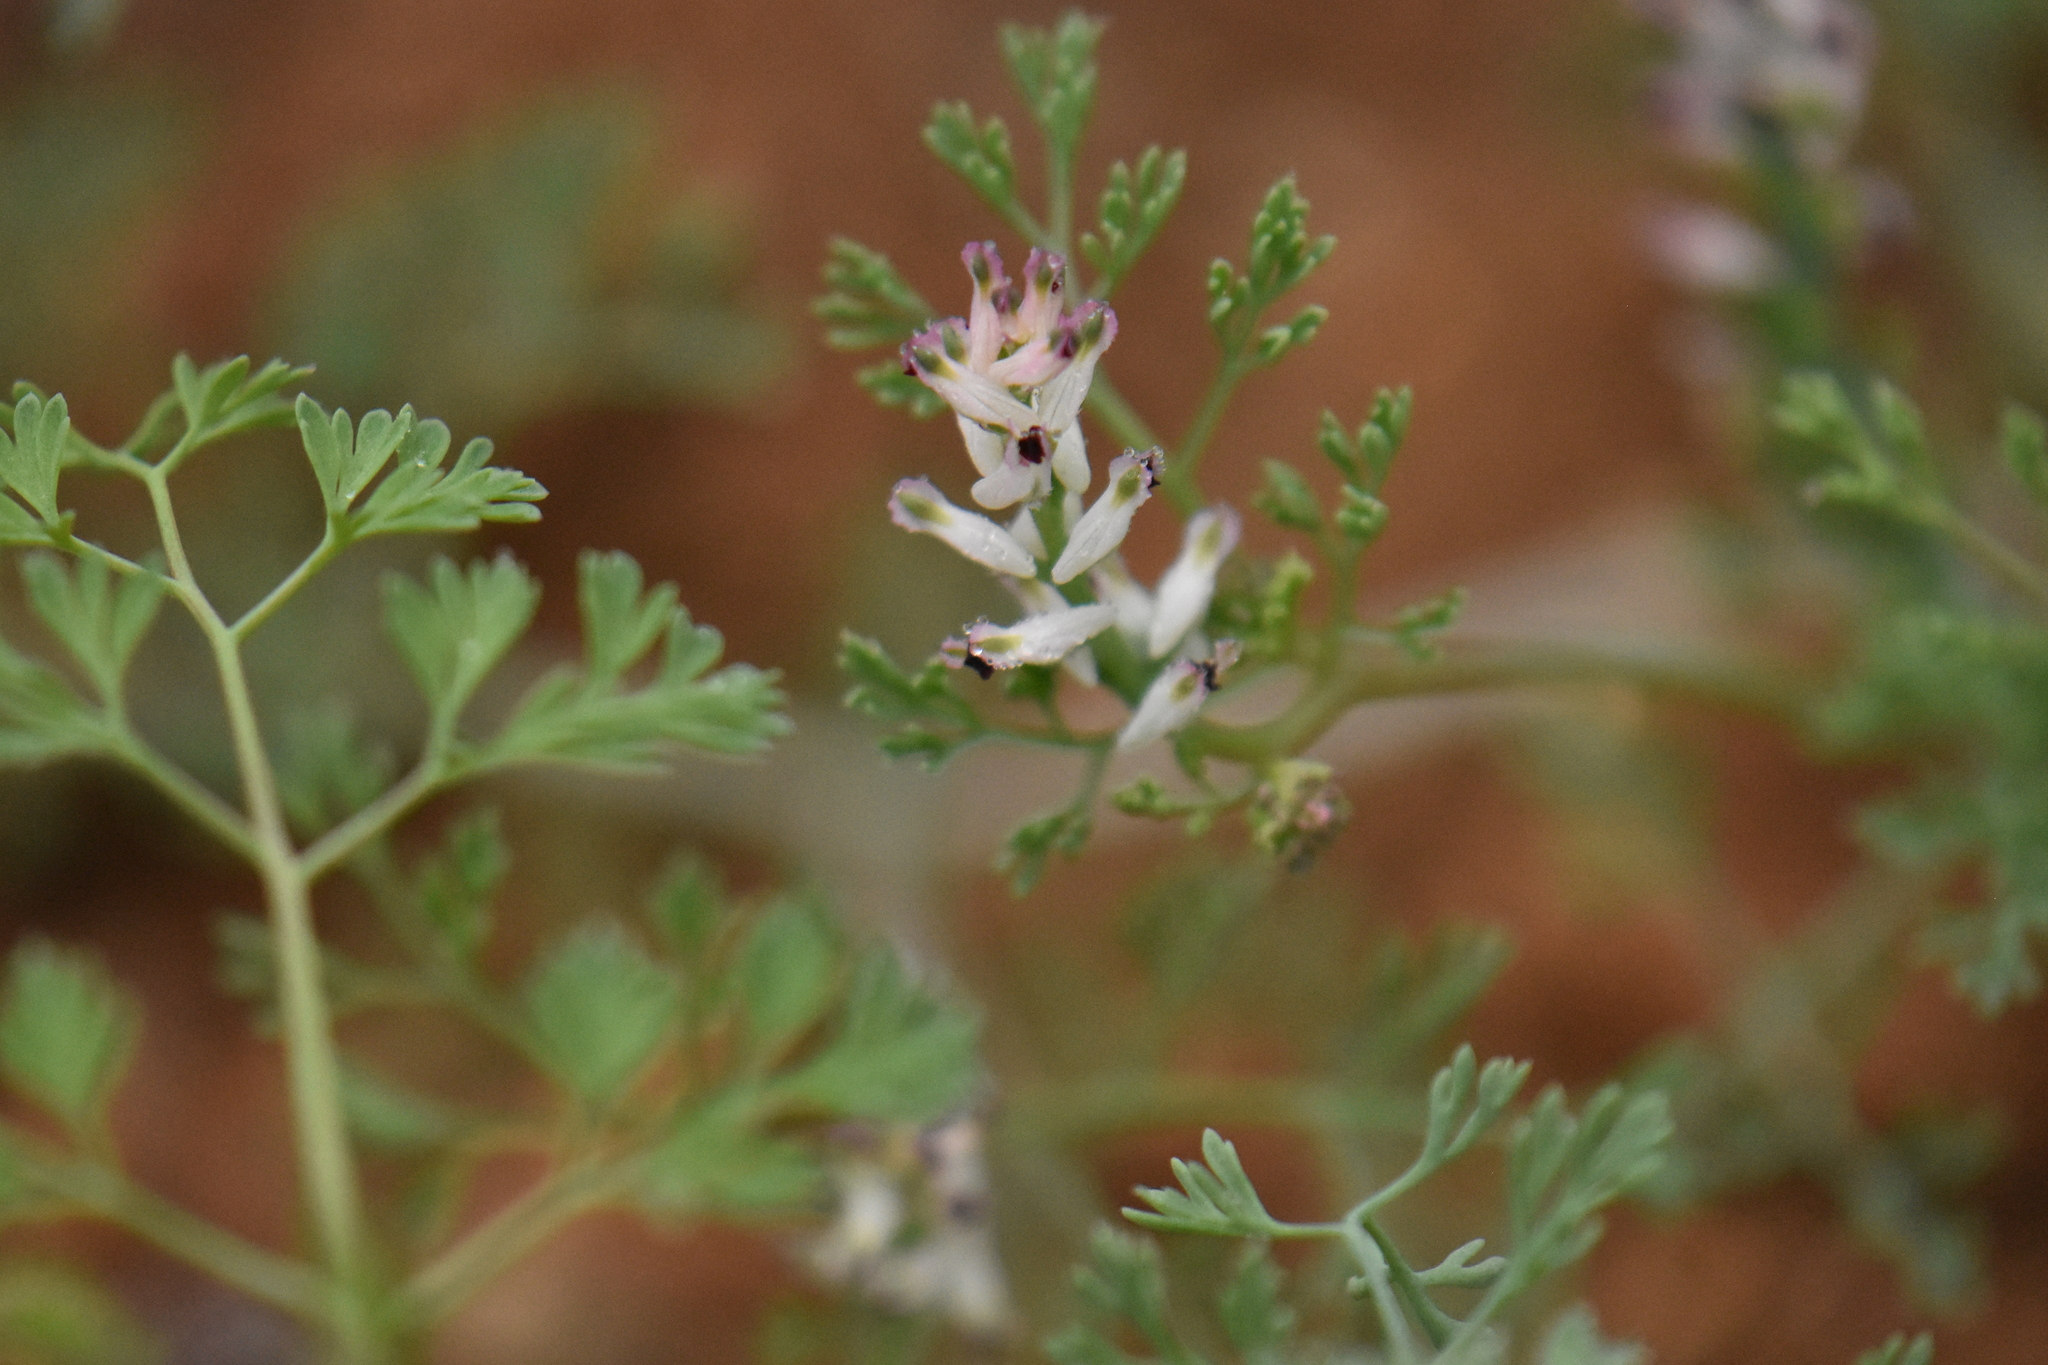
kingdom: Plantae
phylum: Tracheophyta
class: Magnoliopsida
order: Ranunculales
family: Papaveraceae
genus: Fumaria
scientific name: Fumaria parviflora
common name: Fine-leaved fumitory
